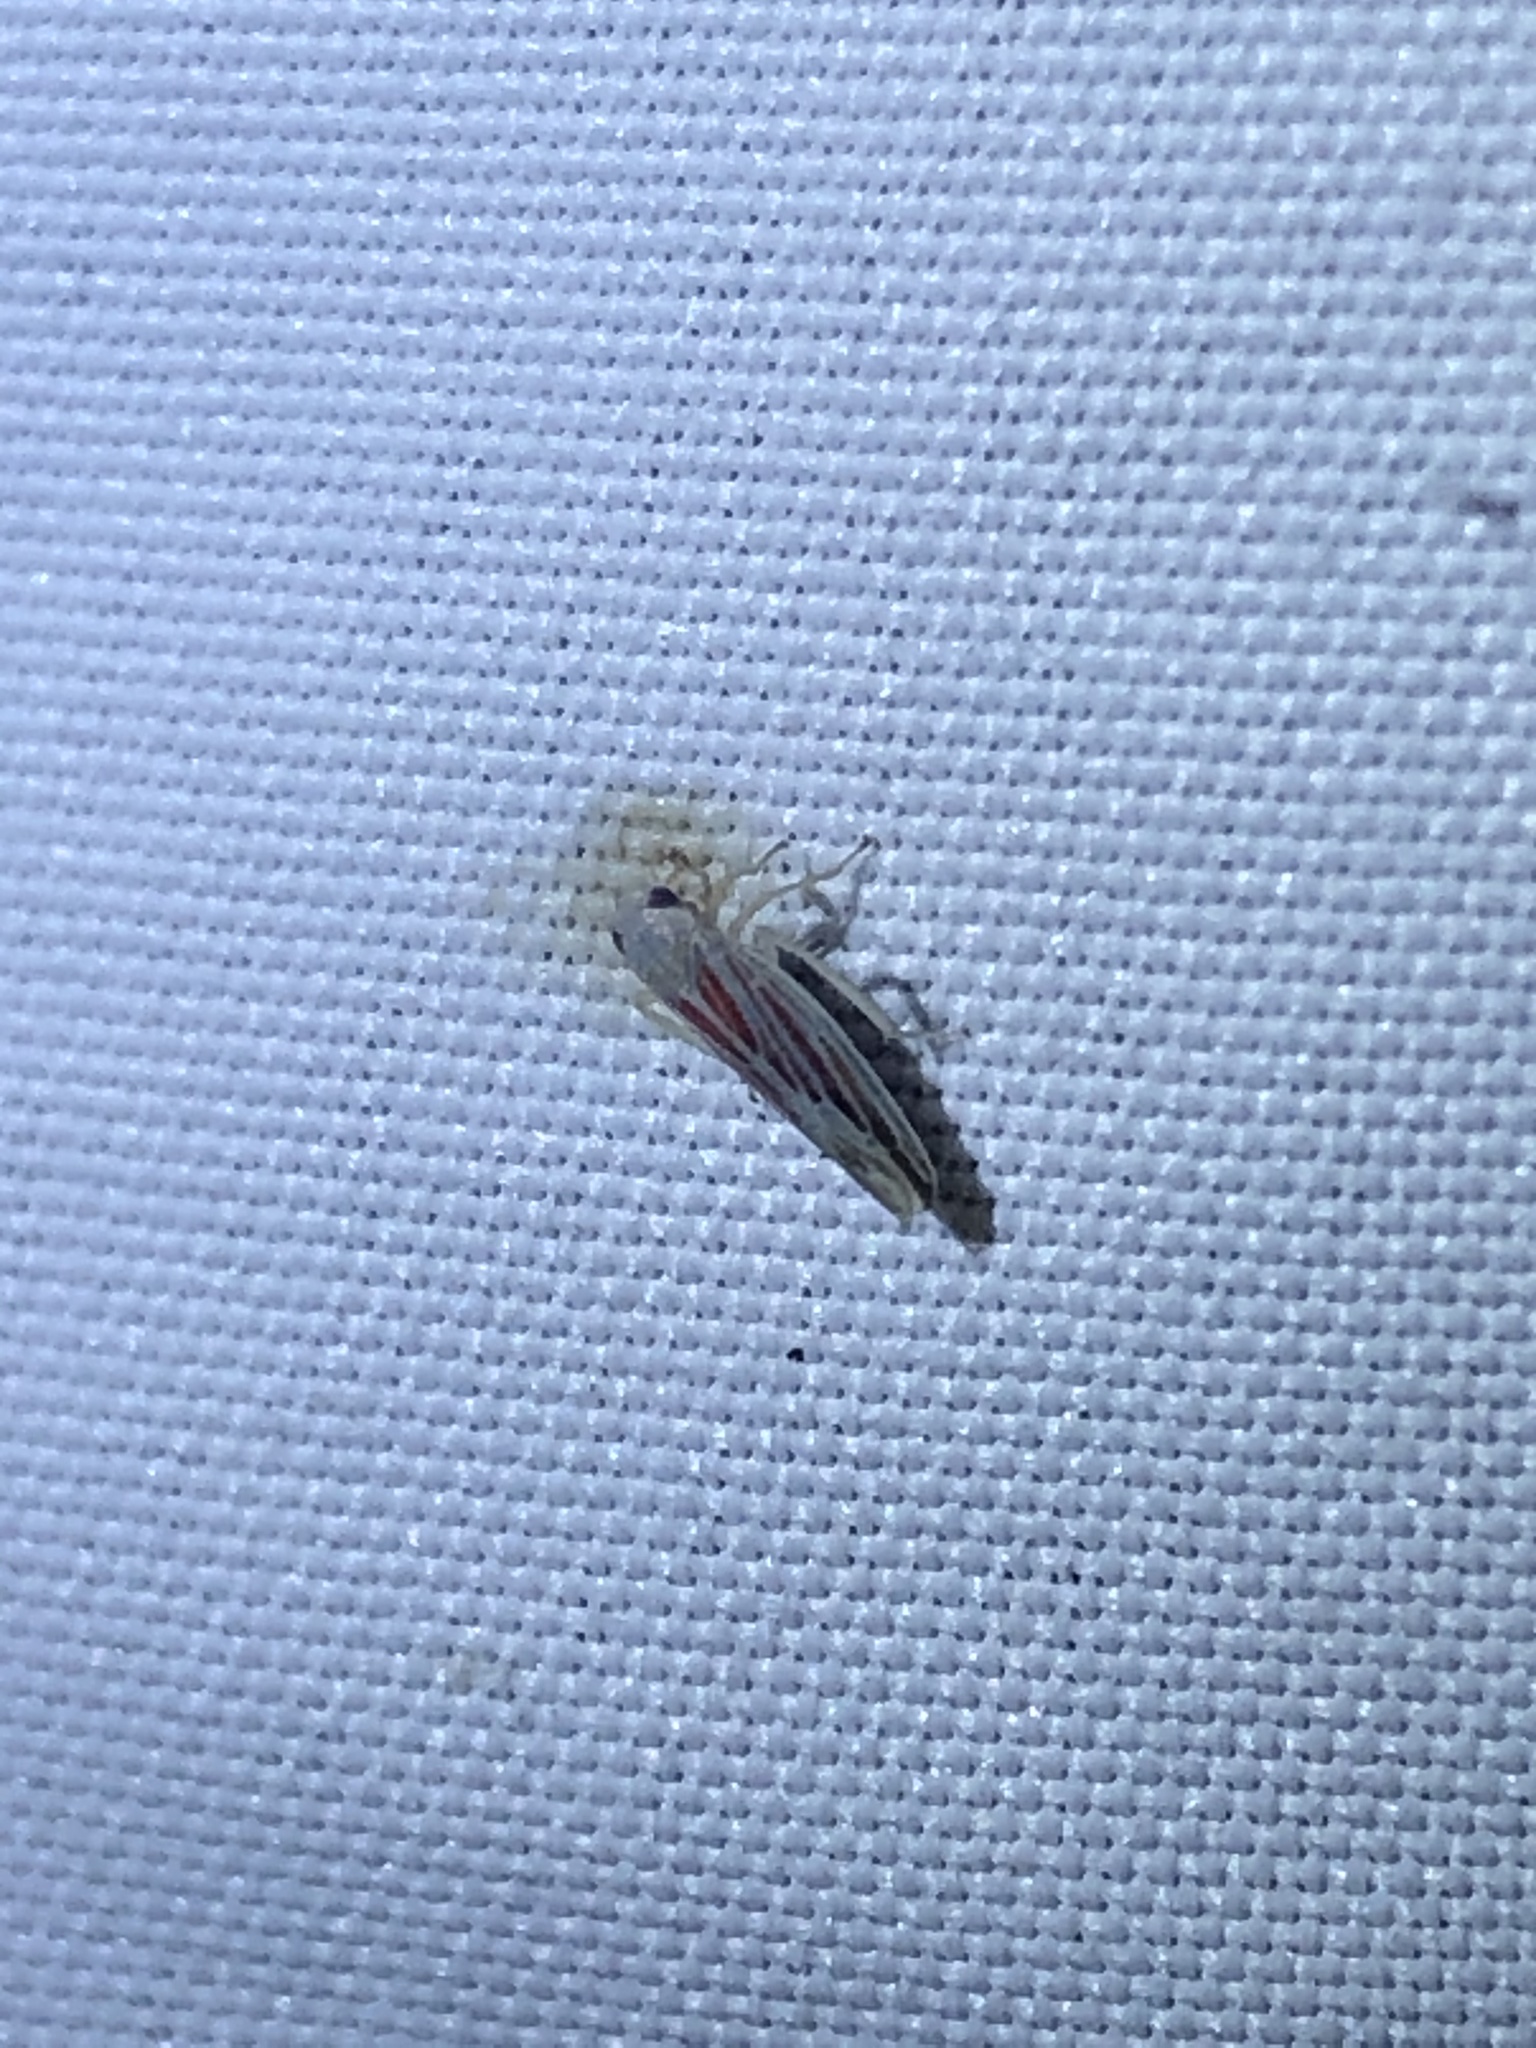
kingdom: Animalia
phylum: Arthropoda
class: Insecta
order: Hemiptera
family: Cicadellidae
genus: Balclutha
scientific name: Balclutha rubrostriata
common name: Red-streaked leafhopper
